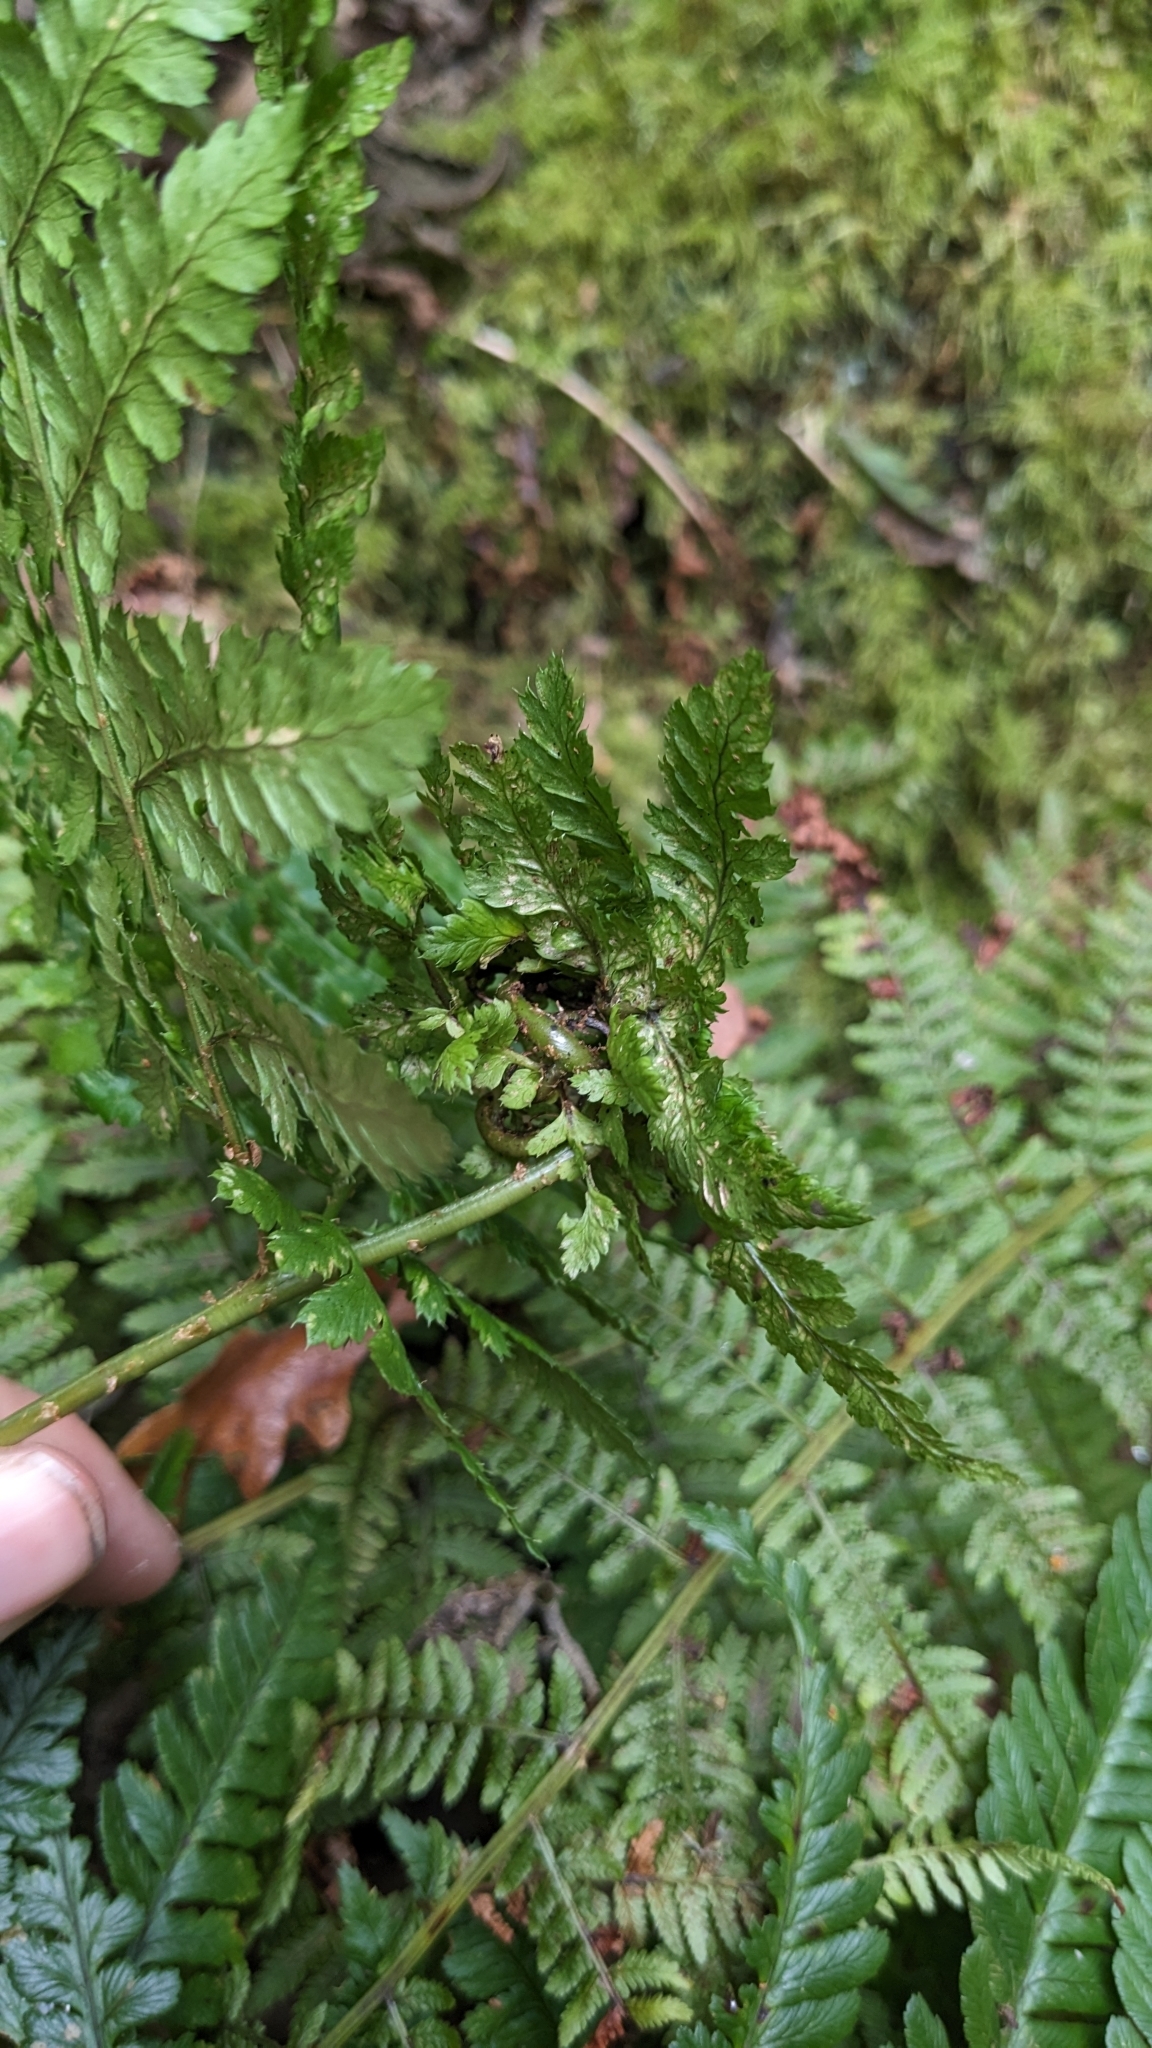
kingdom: Animalia
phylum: Arthropoda
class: Insecta
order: Diptera
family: Anthomyiidae
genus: Chirosia
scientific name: Chirosia betuleti
